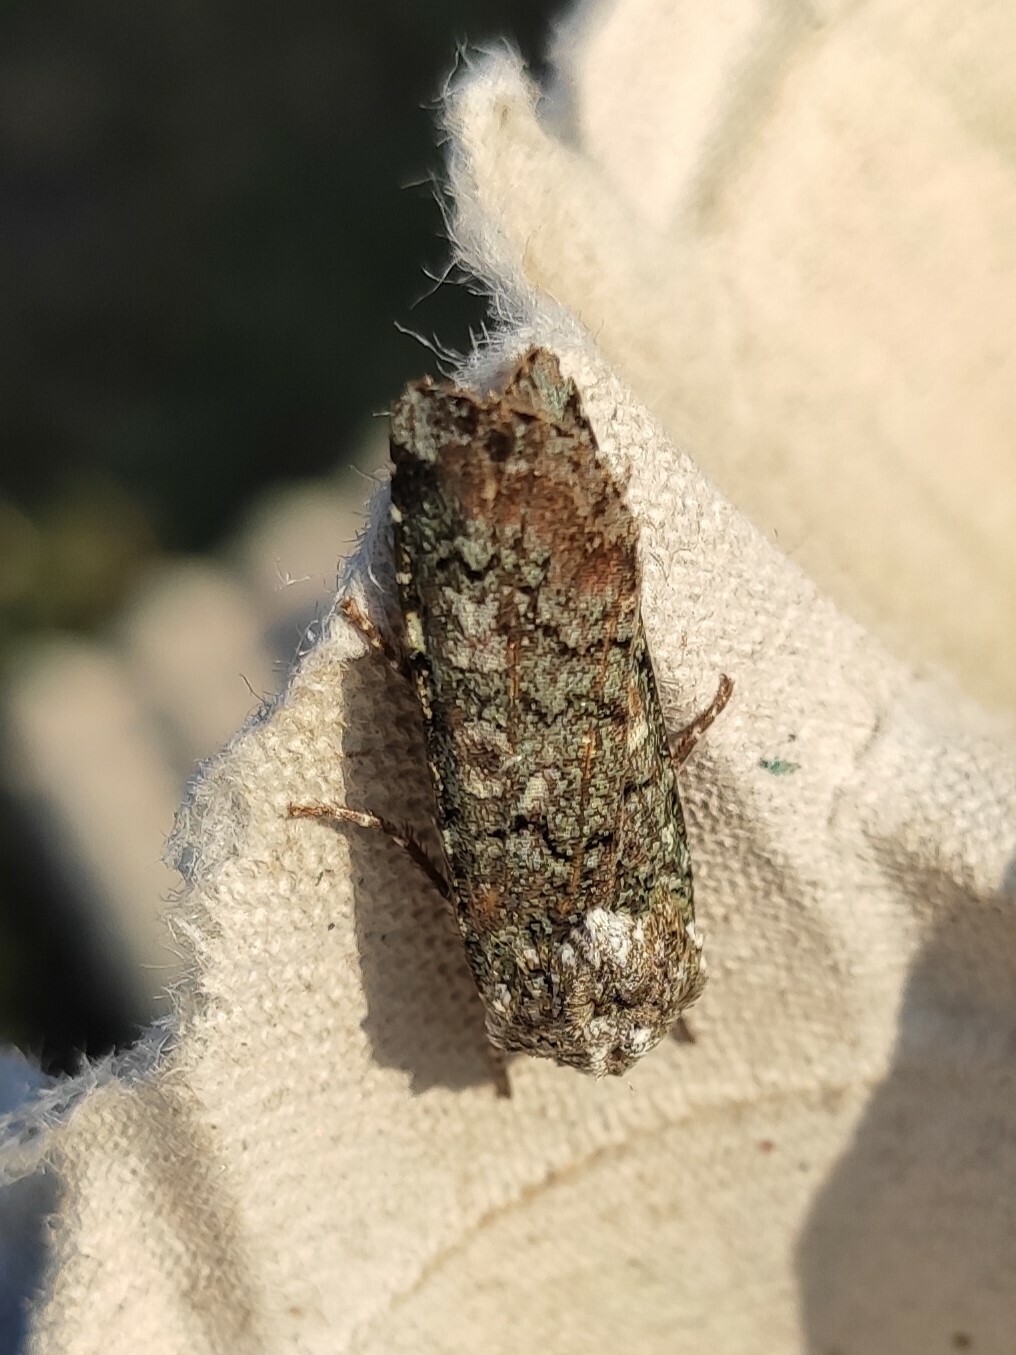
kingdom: Animalia
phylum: Arthropoda
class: Insecta
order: Lepidoptera
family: Noctuidae
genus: Actebia
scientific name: Actebia praecox
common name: Portland moth
